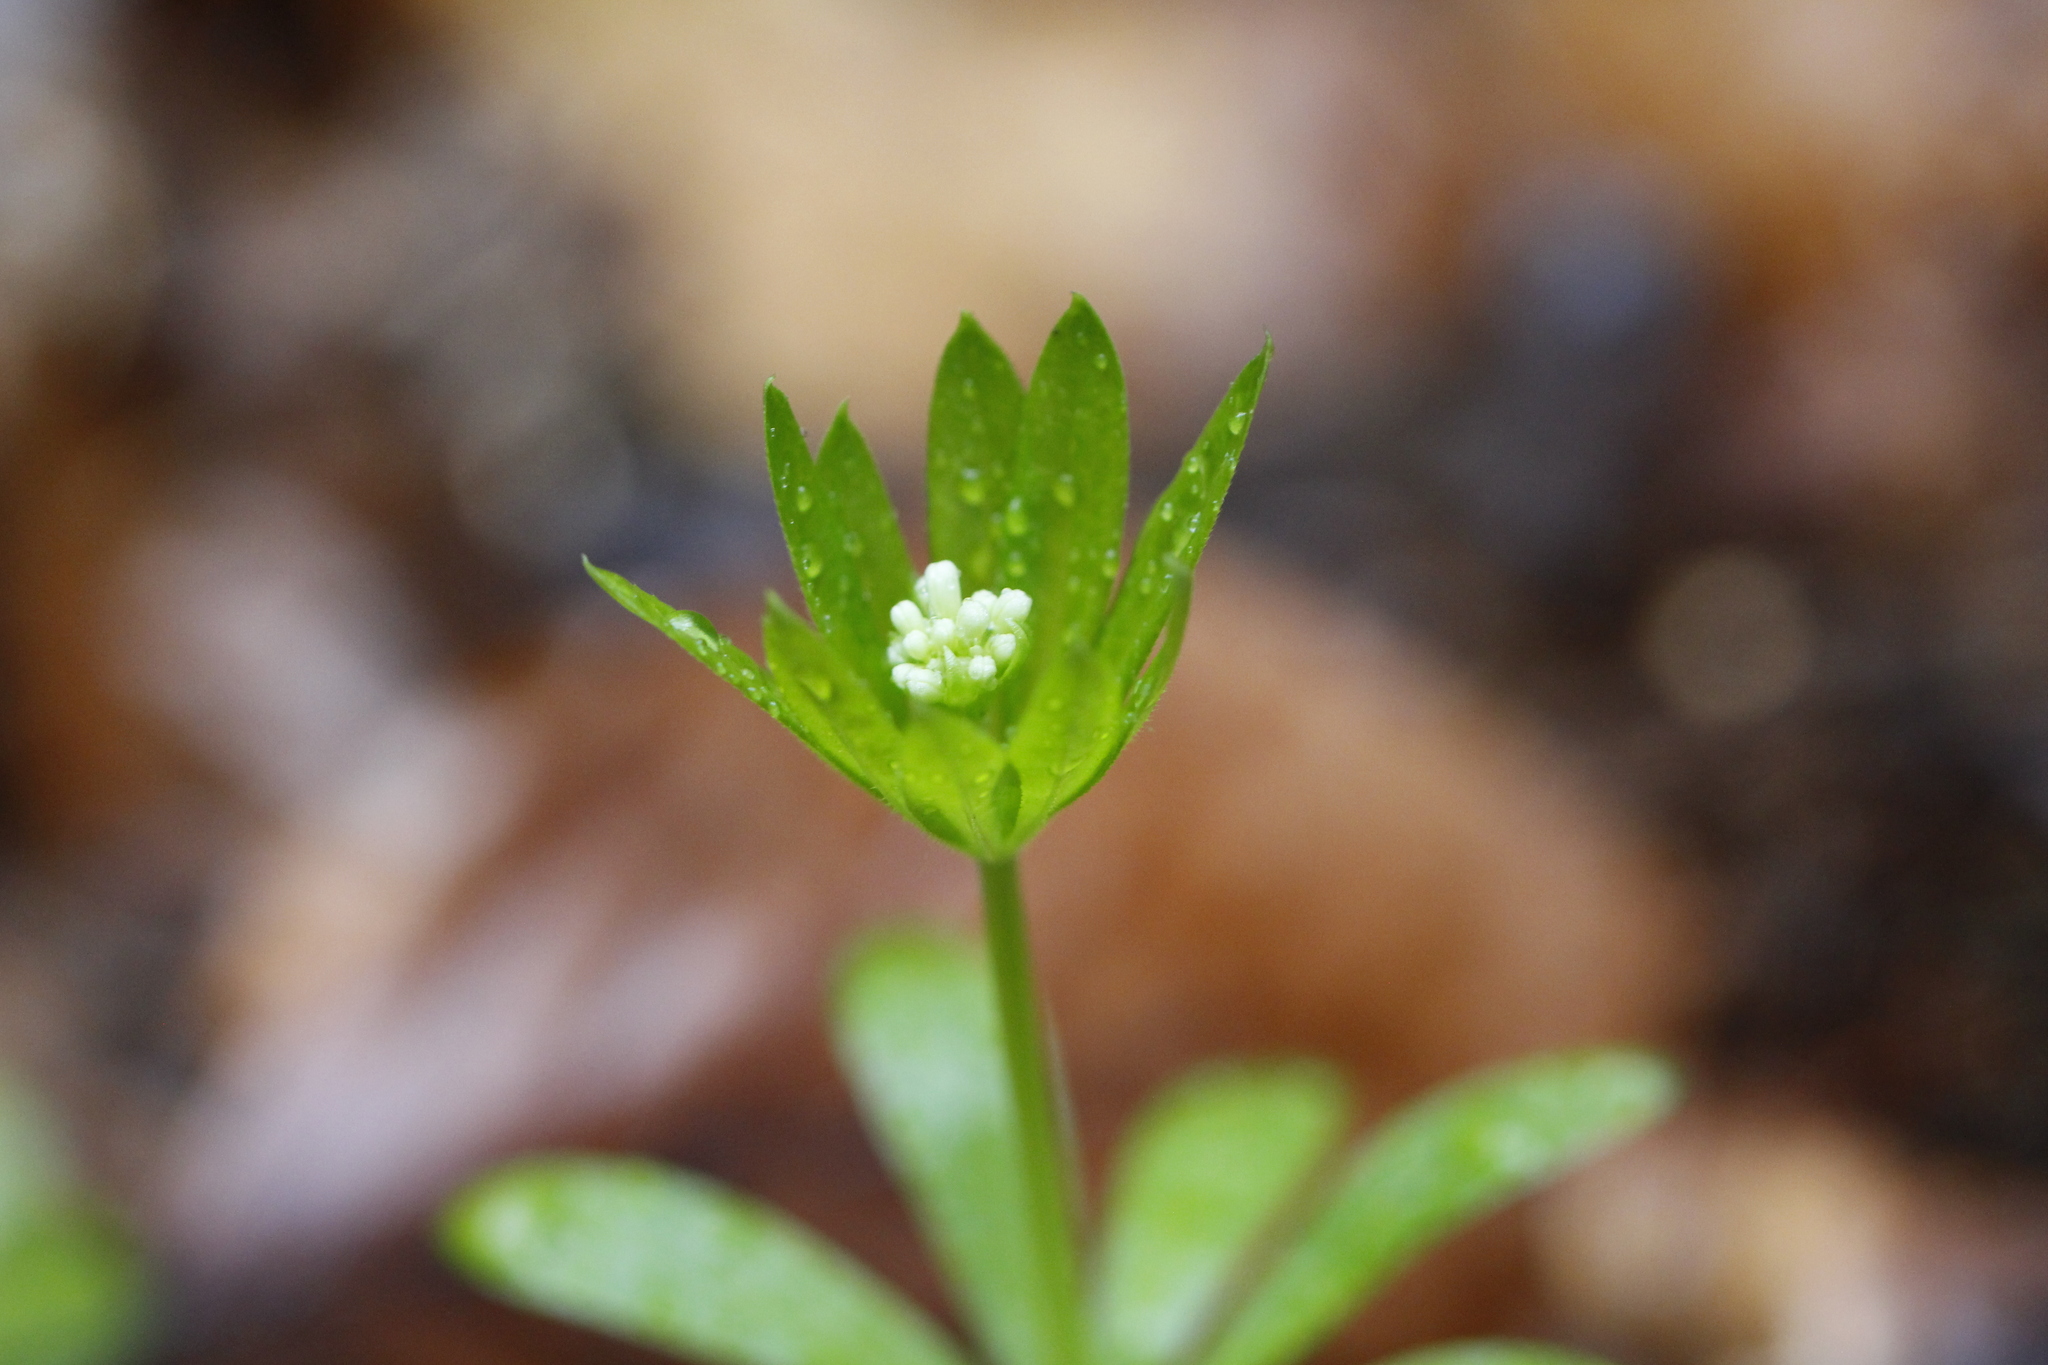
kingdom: Plantae
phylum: Tracheophyta
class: Magnoliopsida
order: Gentianales
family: Rubiaceae
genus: Galium
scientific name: Galium odoratum
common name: Sweet woodruff
